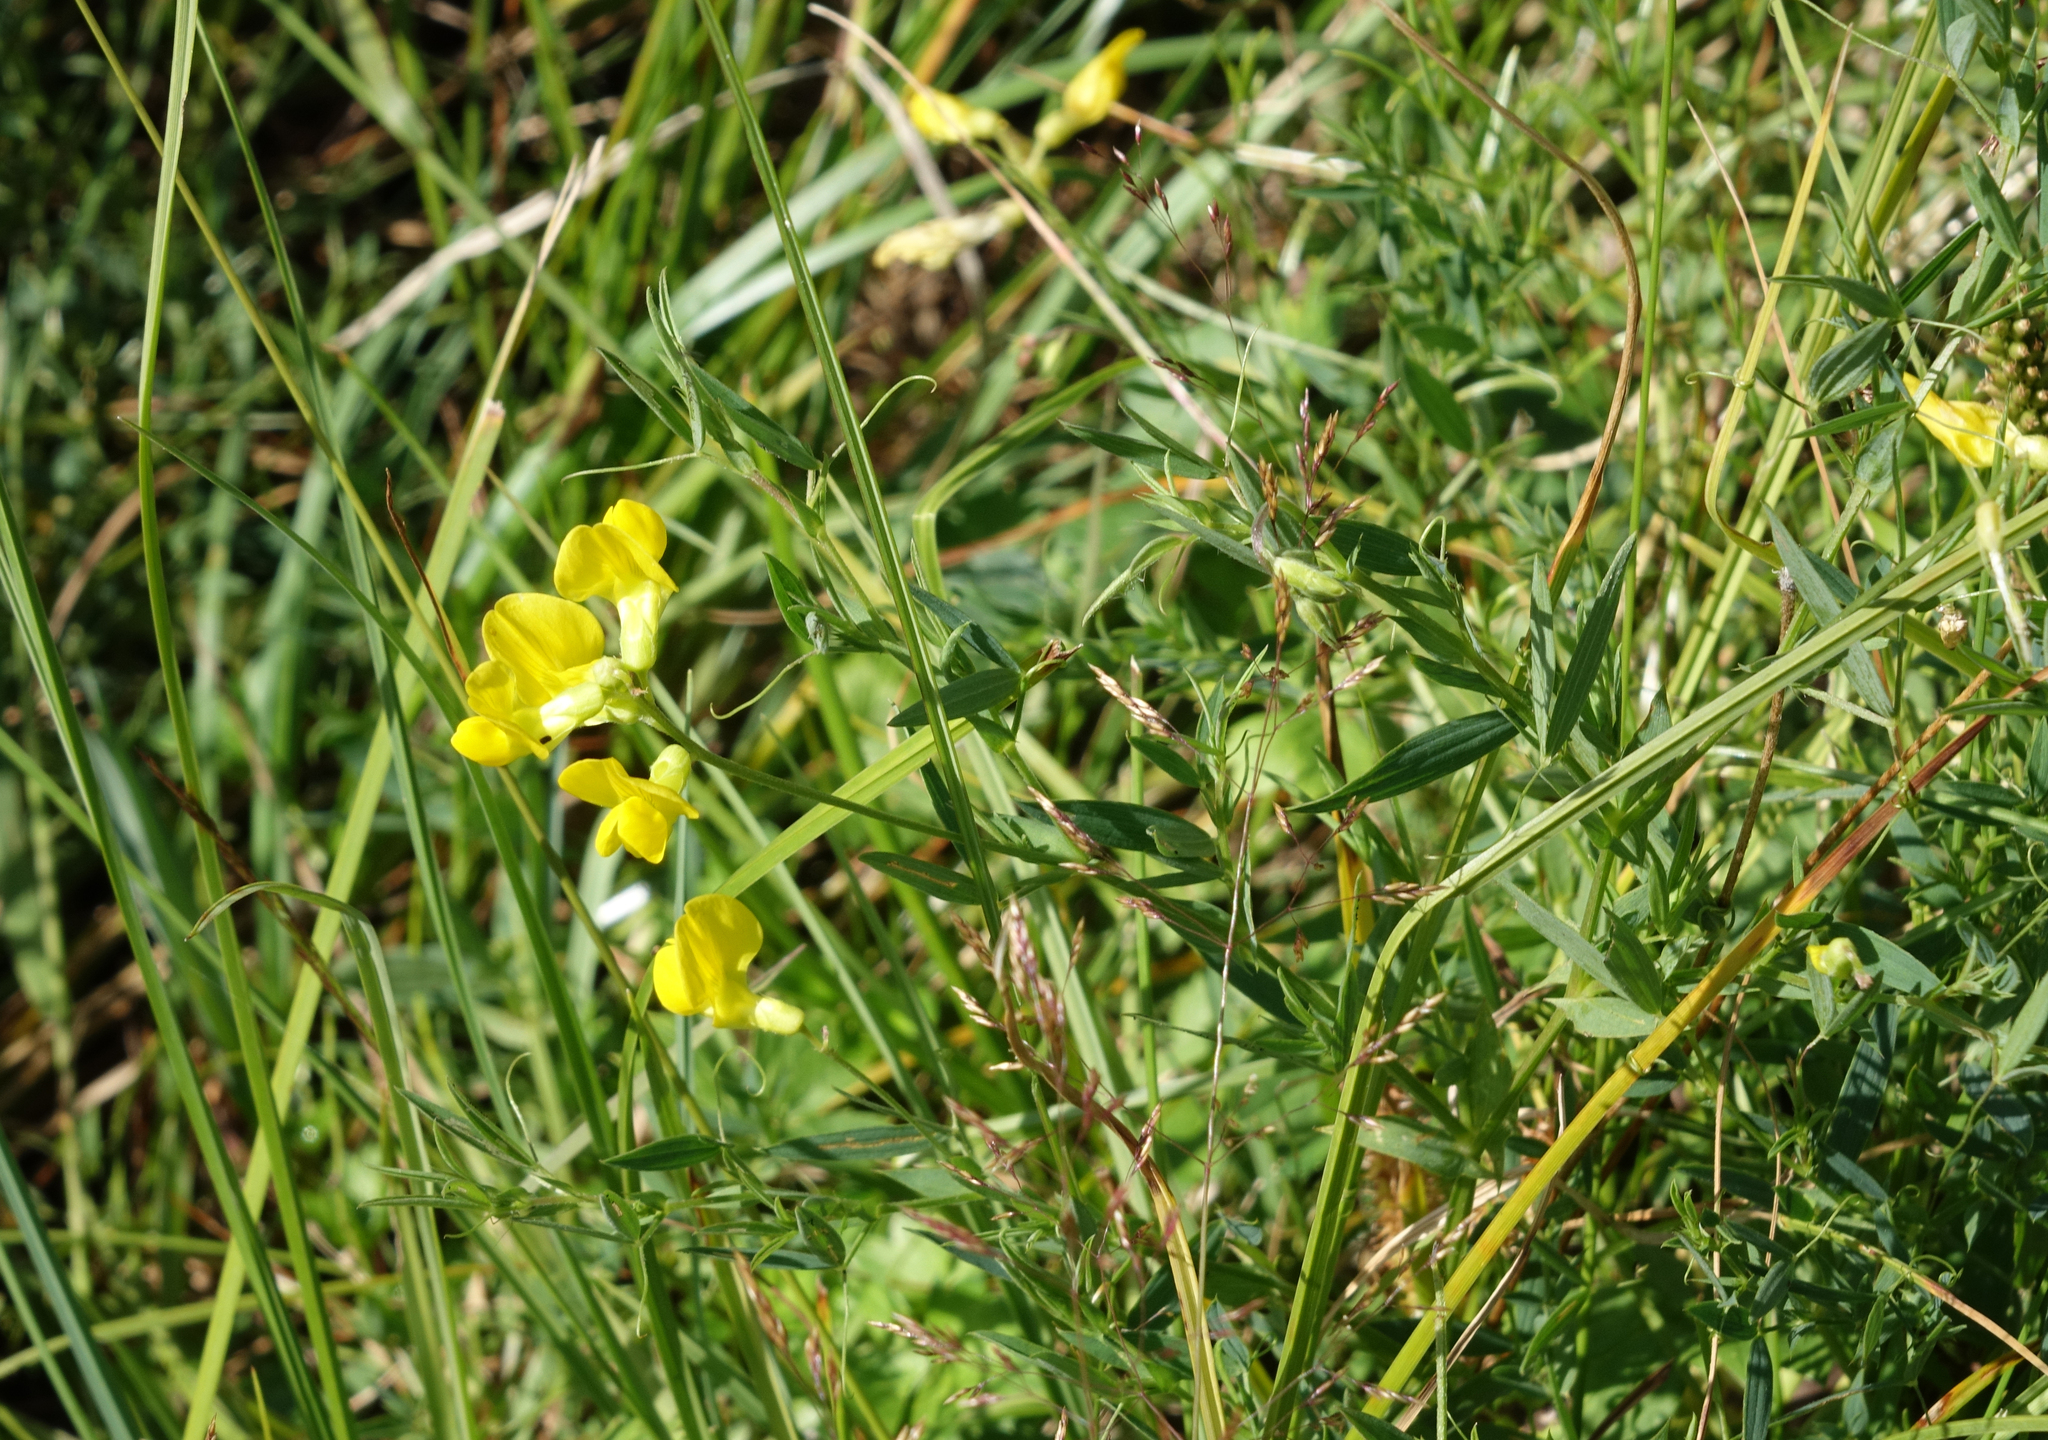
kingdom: Plantae
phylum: Tracheophyta
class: Magnoliopsida
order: Fabales
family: Fabaceae
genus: Lathyrus
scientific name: Lathyrus pratensis
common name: Meadow vetchling
